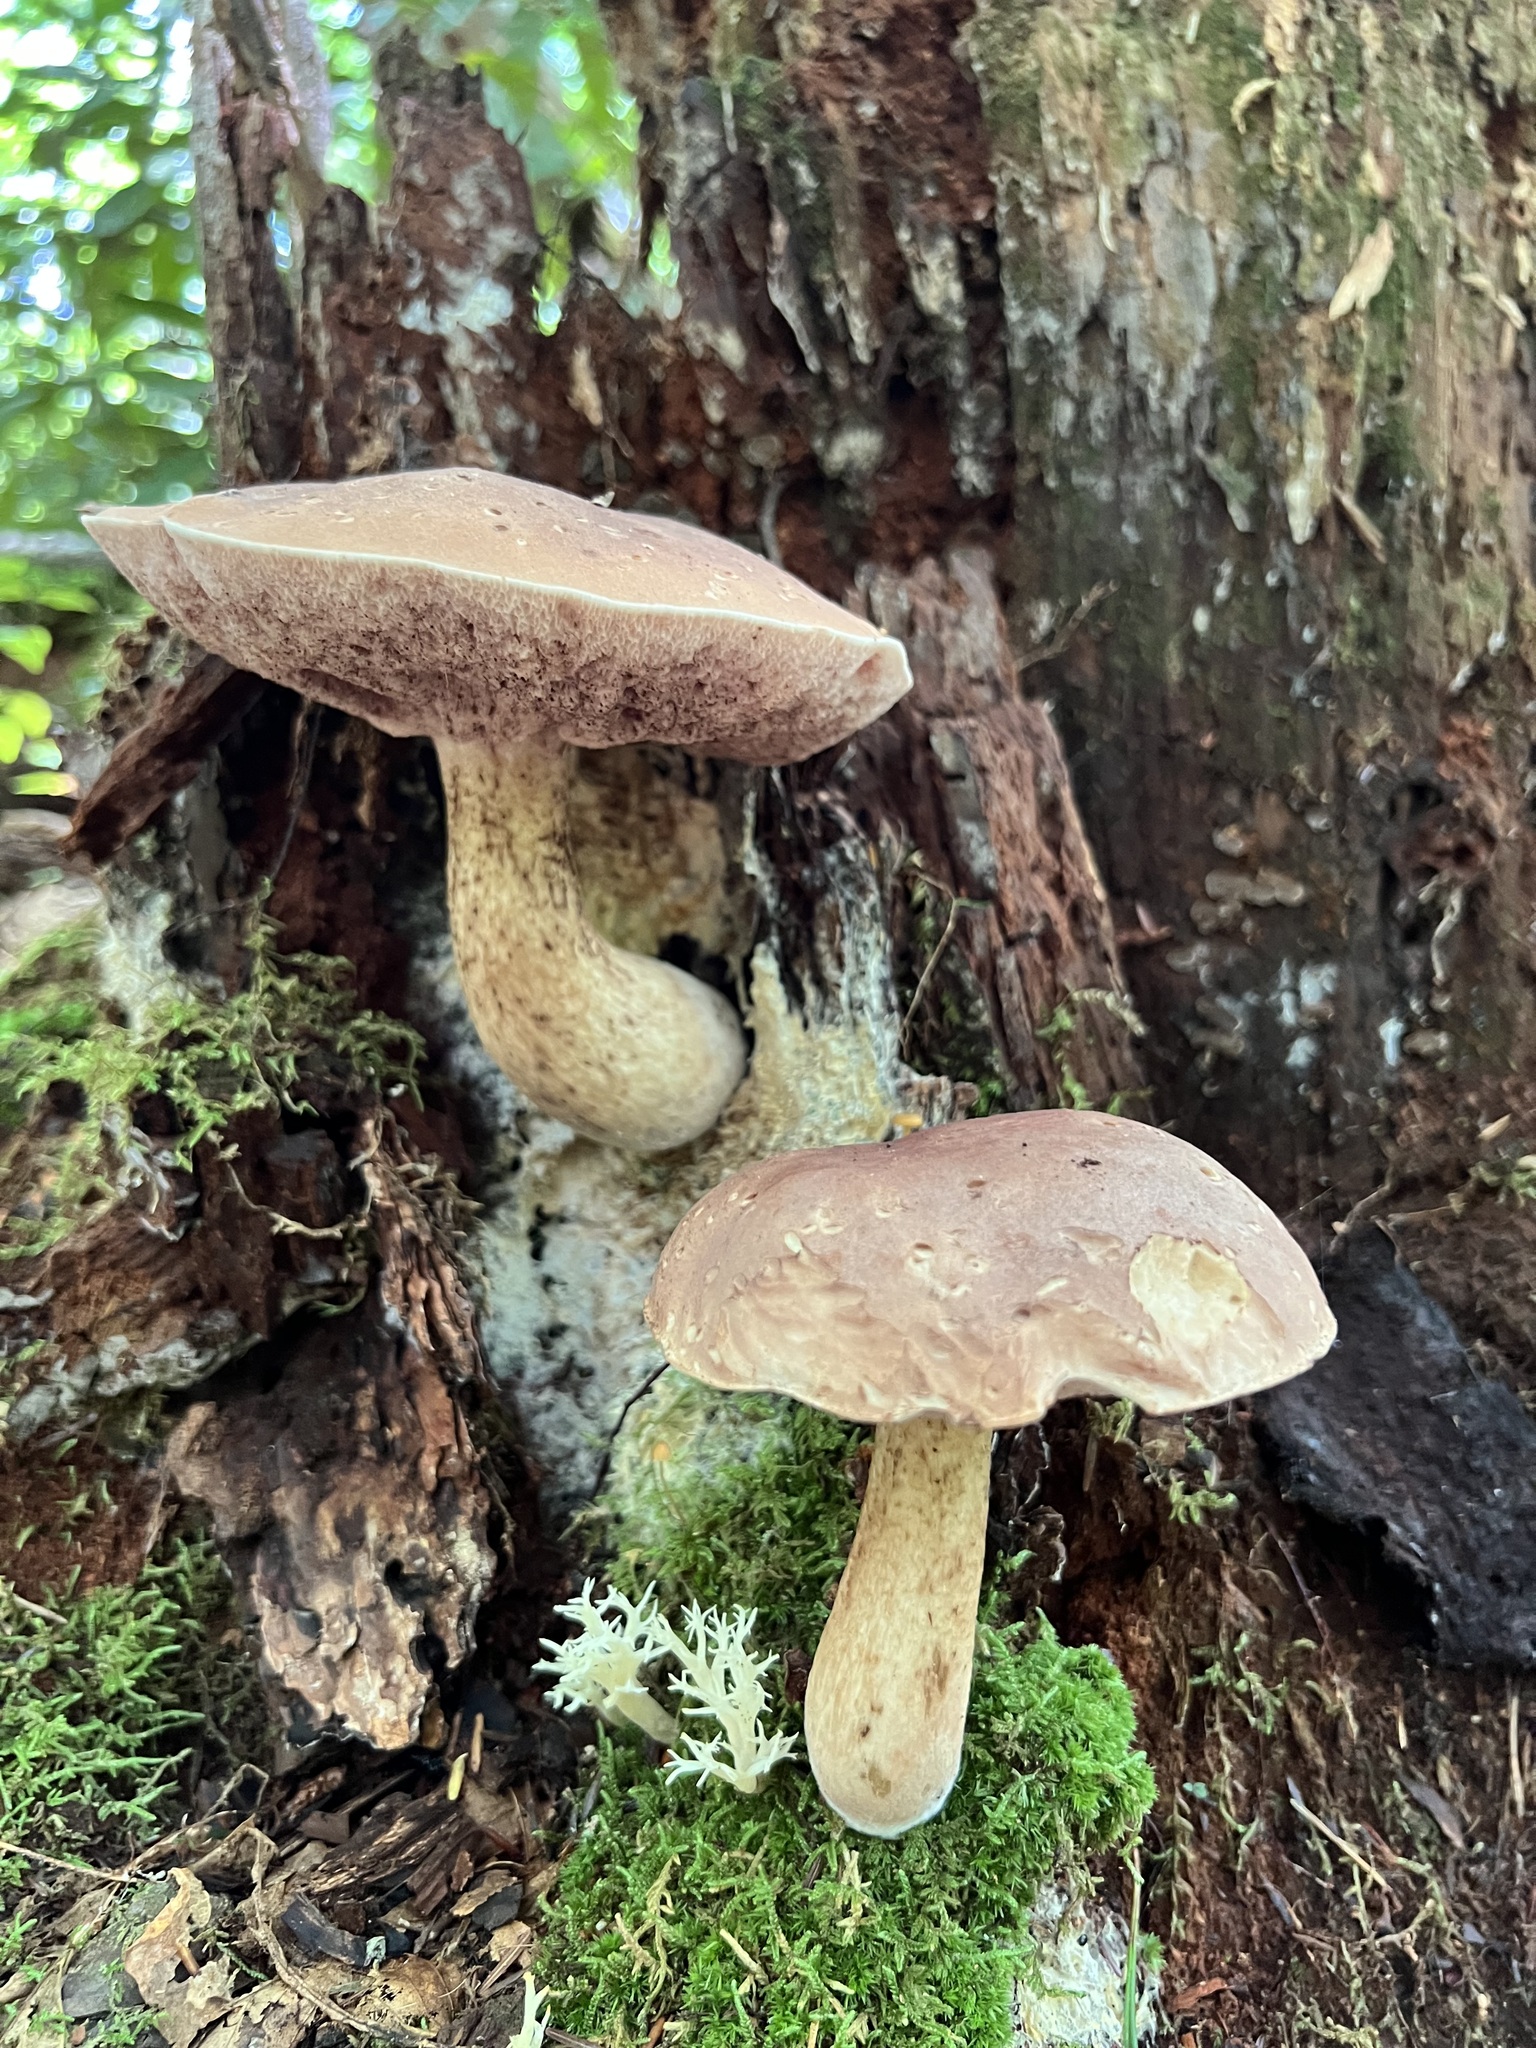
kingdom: Fungi
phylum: Basidiomycota
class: Agaricomycetes
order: Boletales
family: Boletaceae
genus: Tylopilus
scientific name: Tylopilus felleus
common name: Bitter bolete
